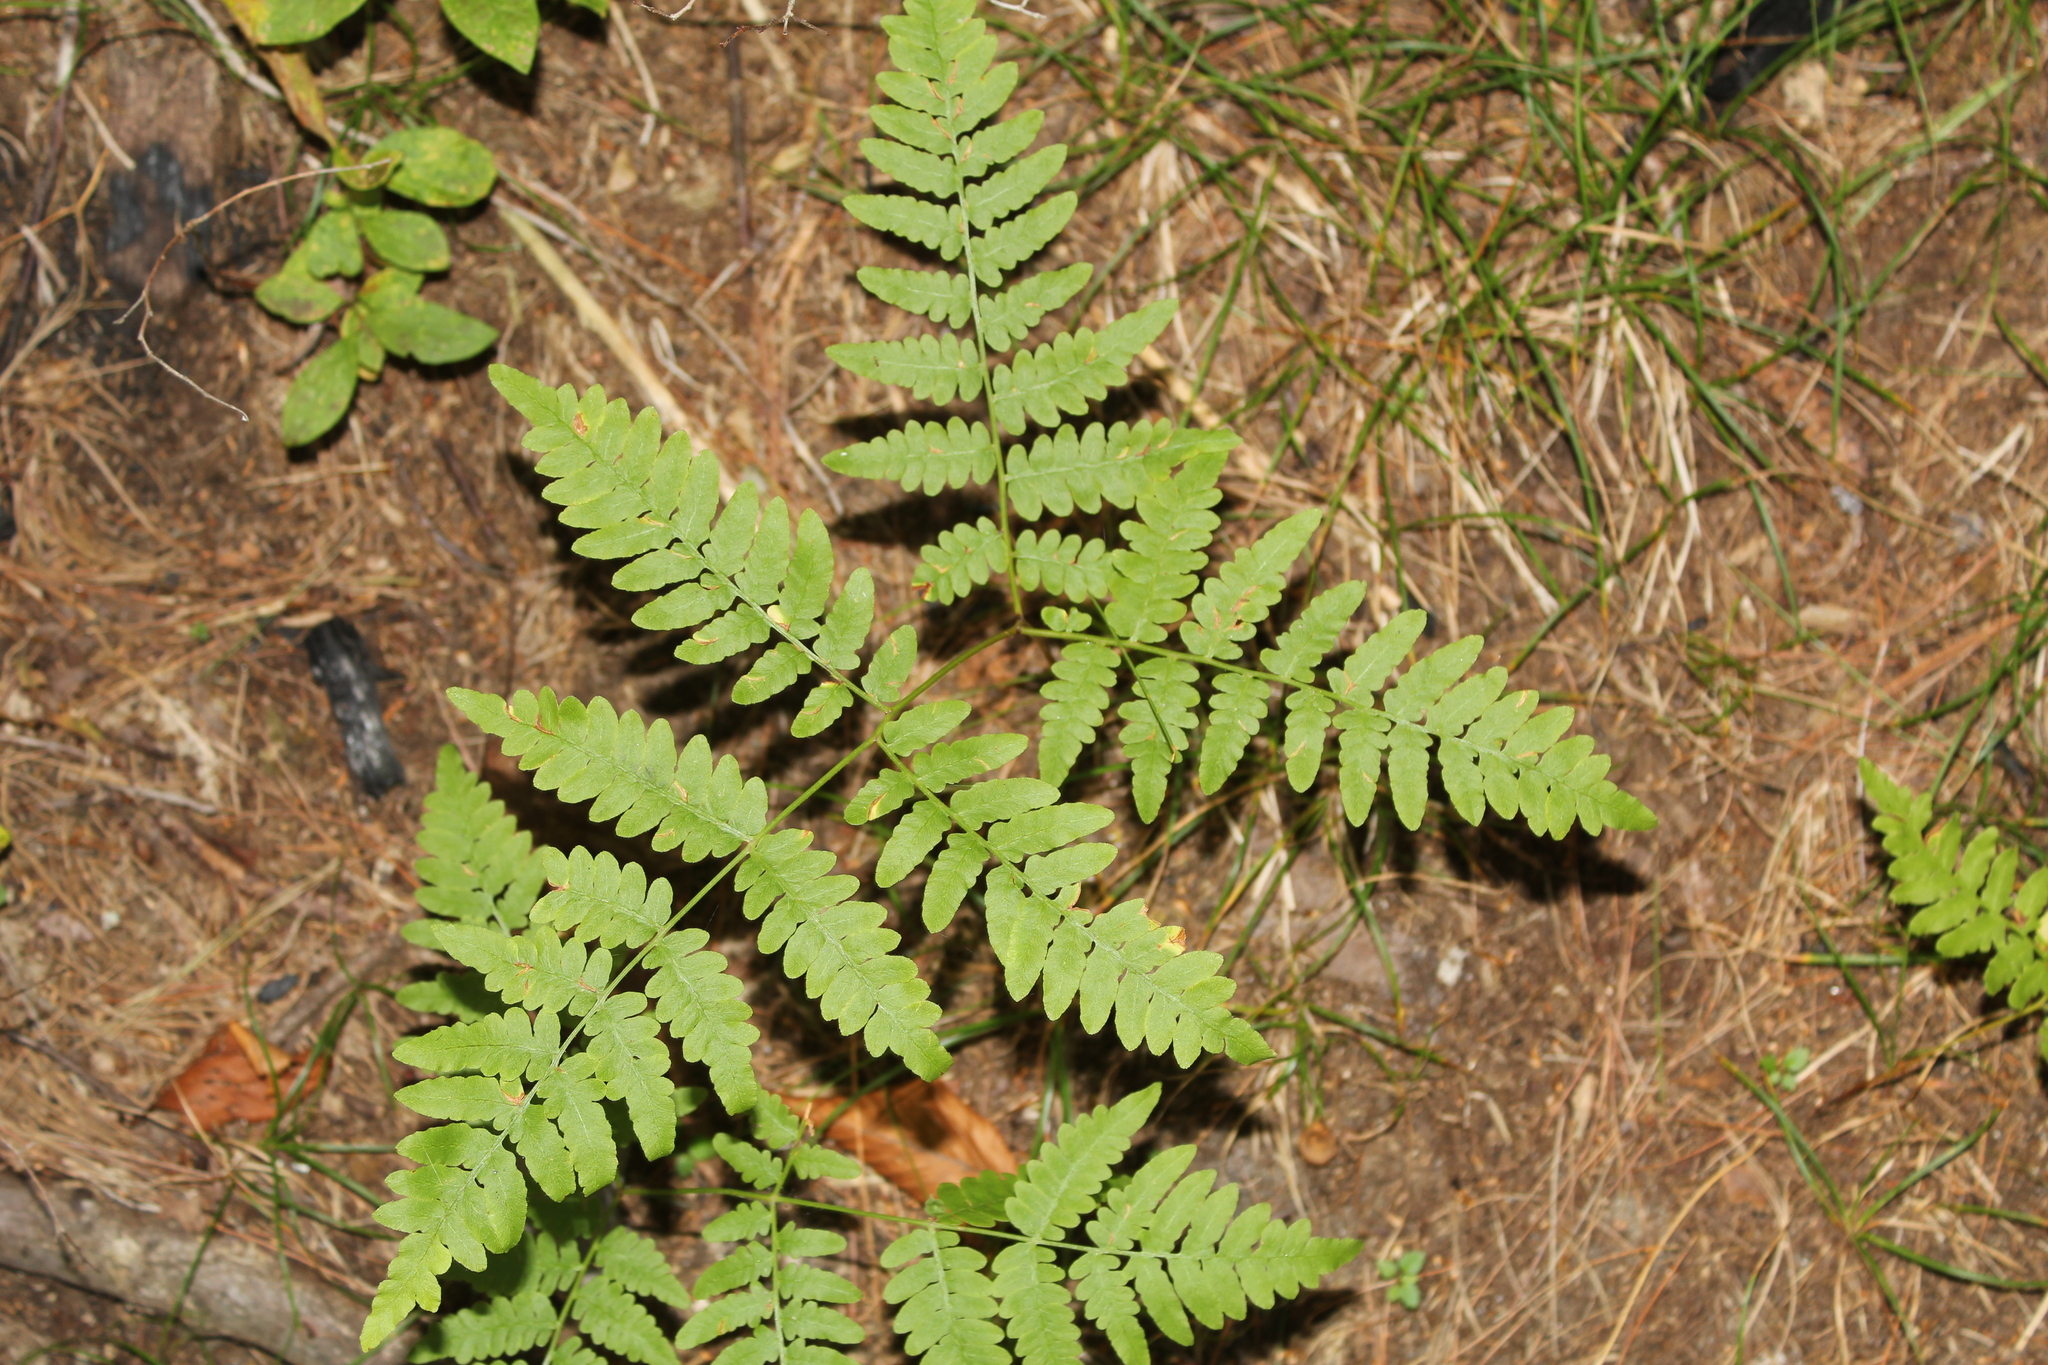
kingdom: Plantae
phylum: Tracheophyta
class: Polypodiopsida
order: Polypodiales
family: Dennstaedtiaceae
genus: Pteridium
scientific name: Pteridium aquilinum
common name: Bracken
